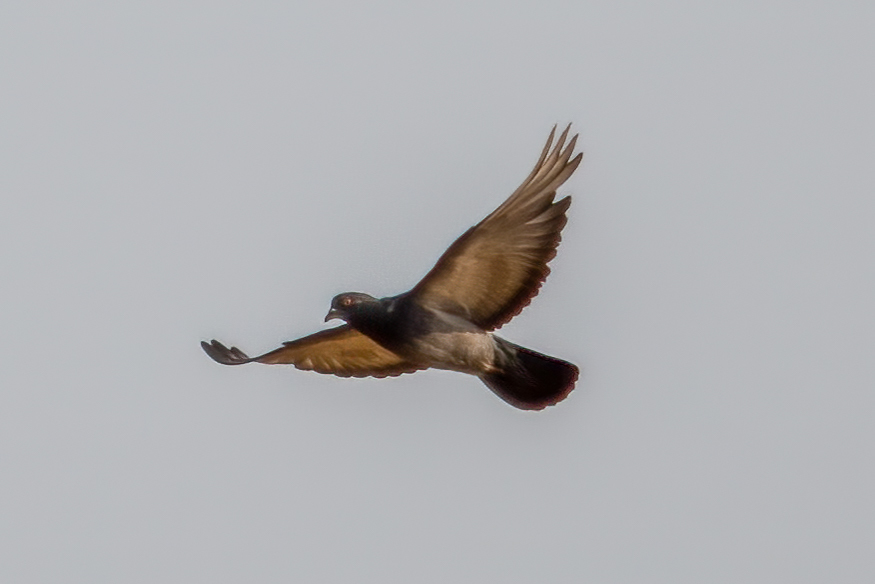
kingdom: Animalia
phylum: Chordata
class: Aves
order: Columbiformes
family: Columbidae
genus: Columba
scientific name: Columba livia
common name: Rock pigeon
